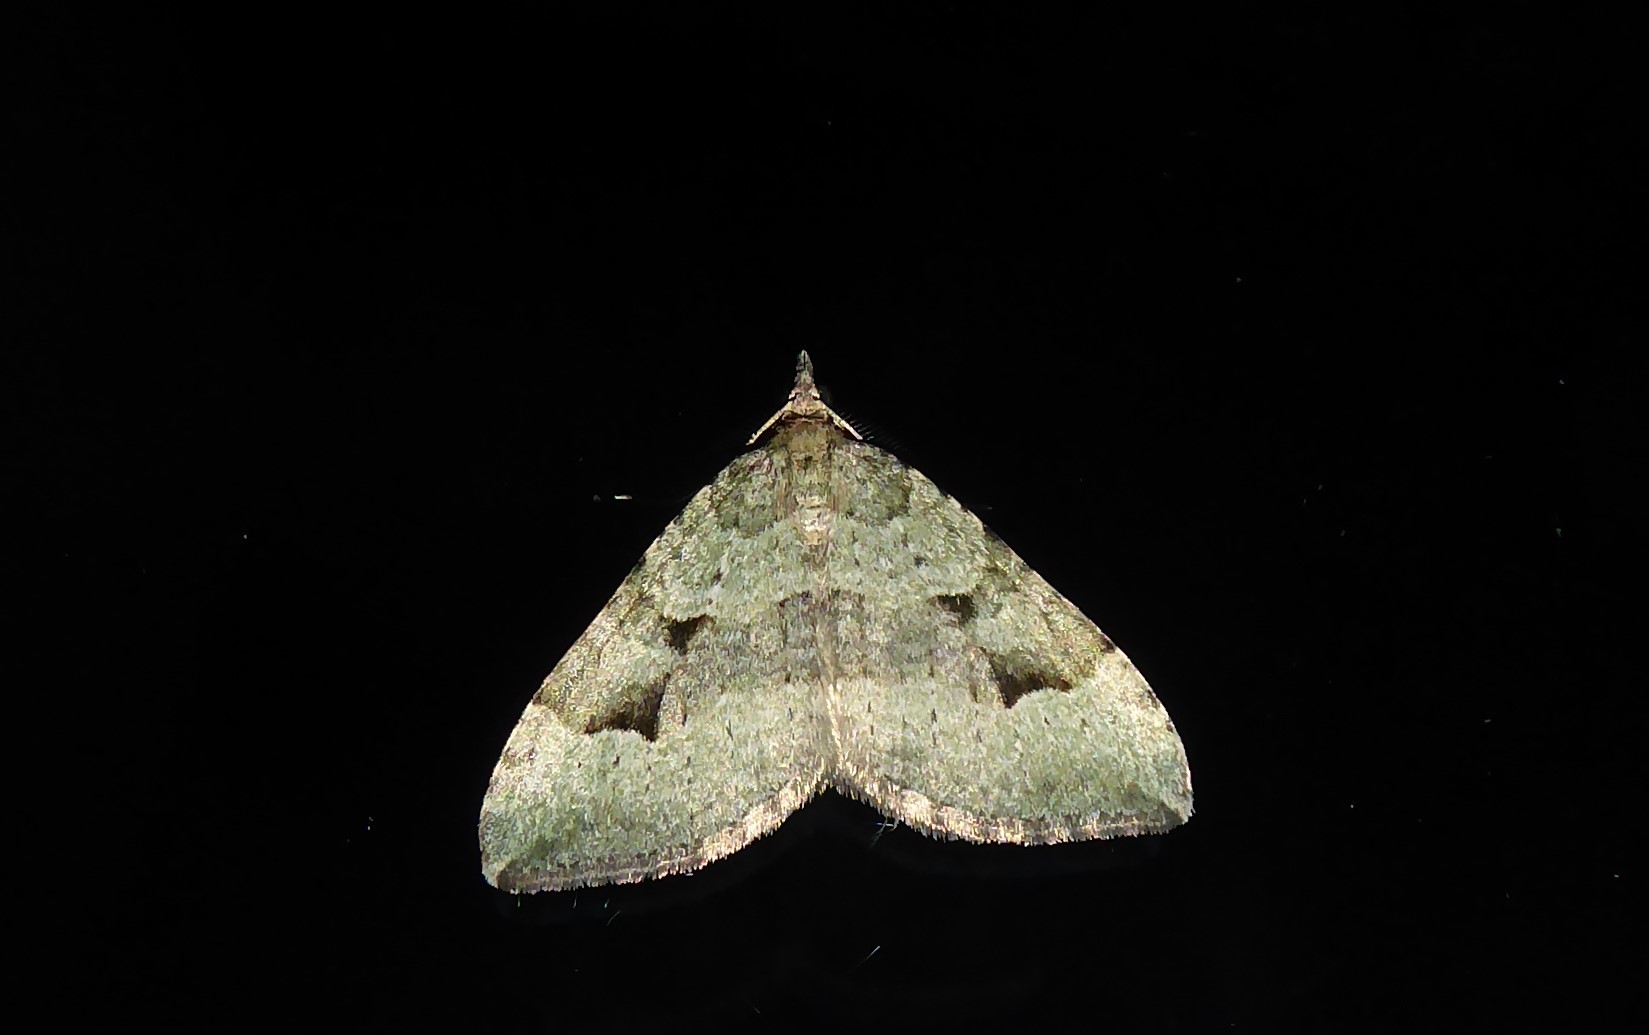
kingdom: Animalia
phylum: Arthropoda
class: Insecta
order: Lepidoptera
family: Geometridae
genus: Epyaxa
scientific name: Epyaxa rosearia
